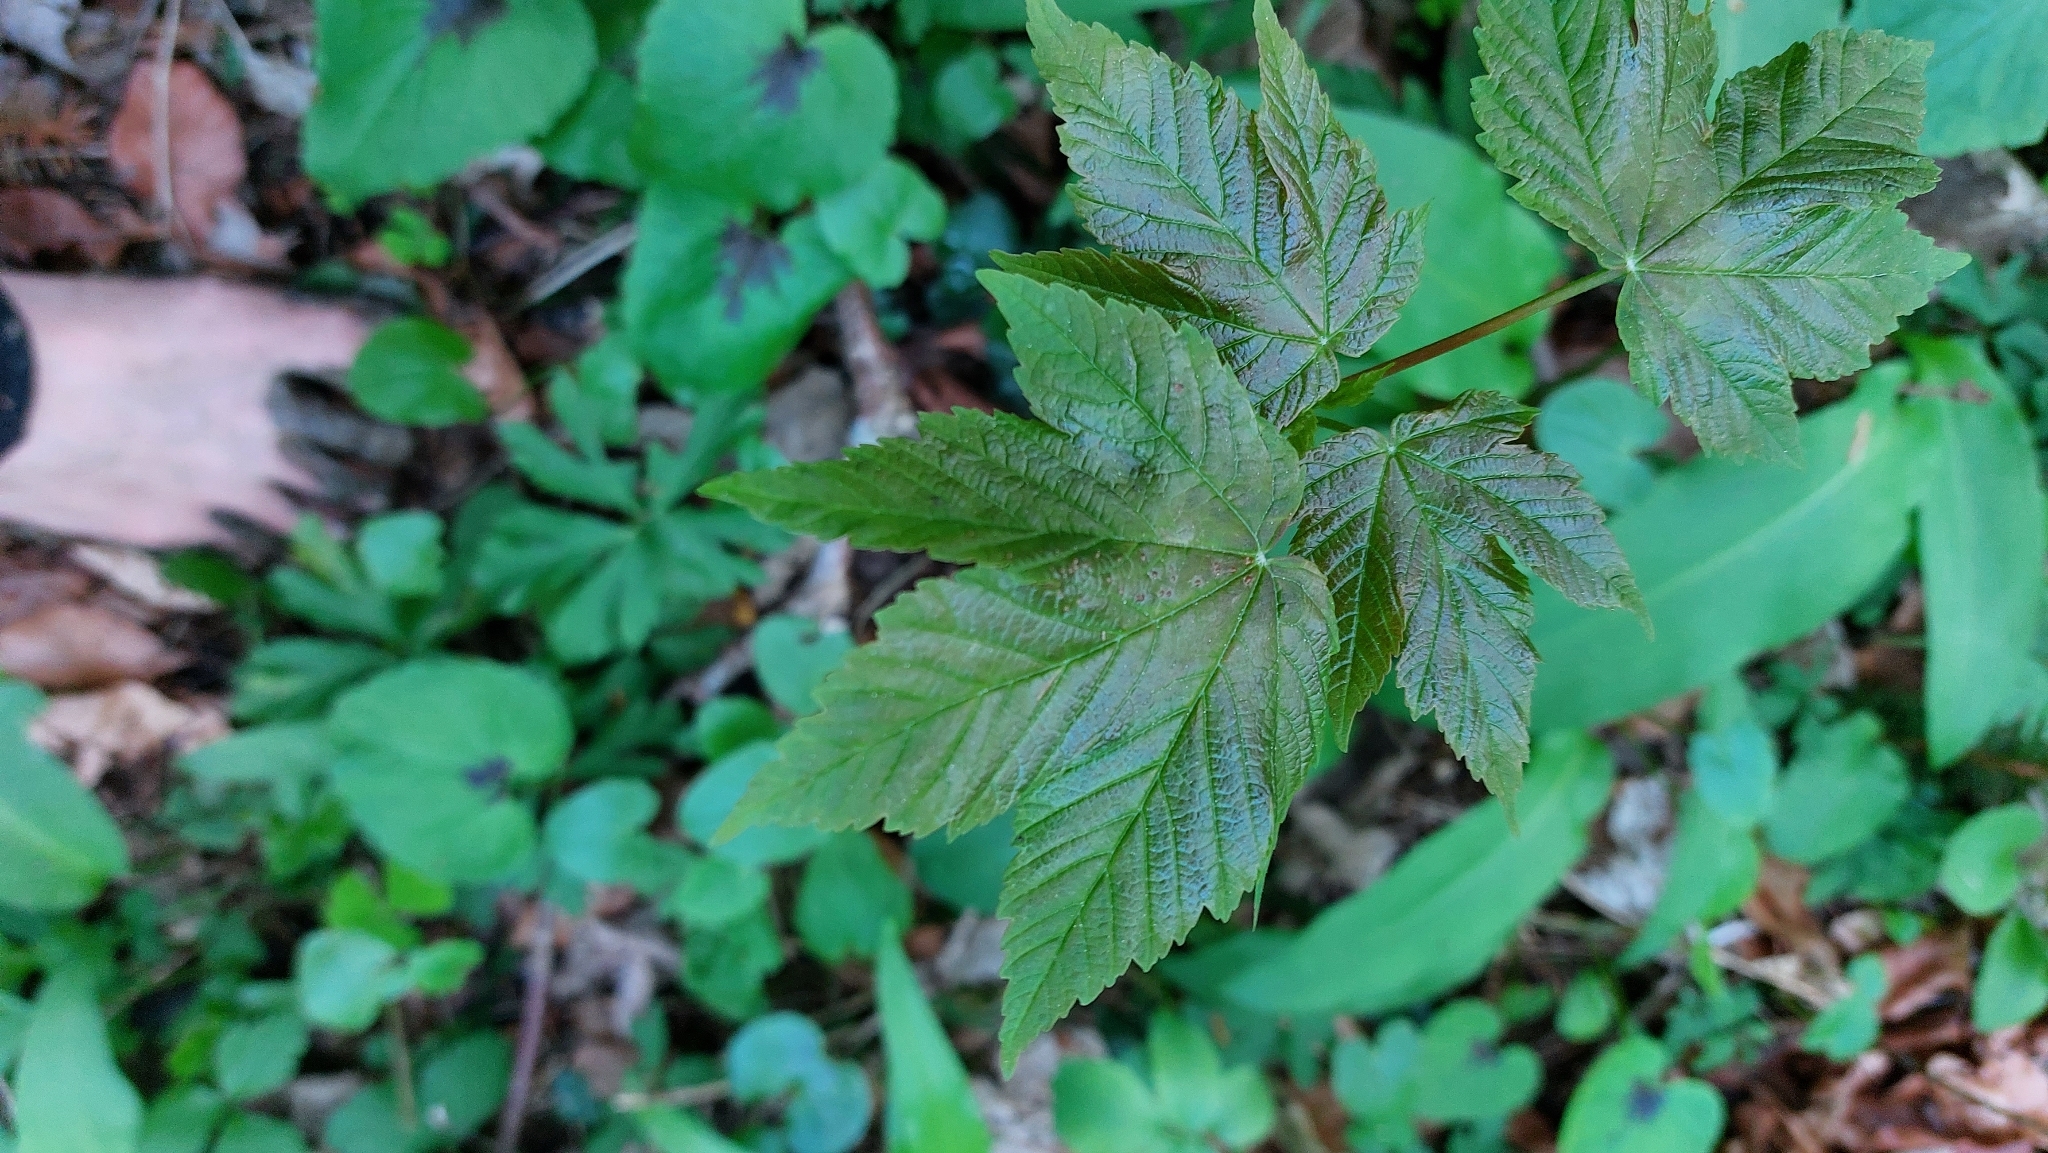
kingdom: Plantae
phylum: Tracheophyta
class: Magnoliopsida
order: Sapindales
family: Sapindaceae
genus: Acer
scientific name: Acer pseudoplatanus
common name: Sycamore
